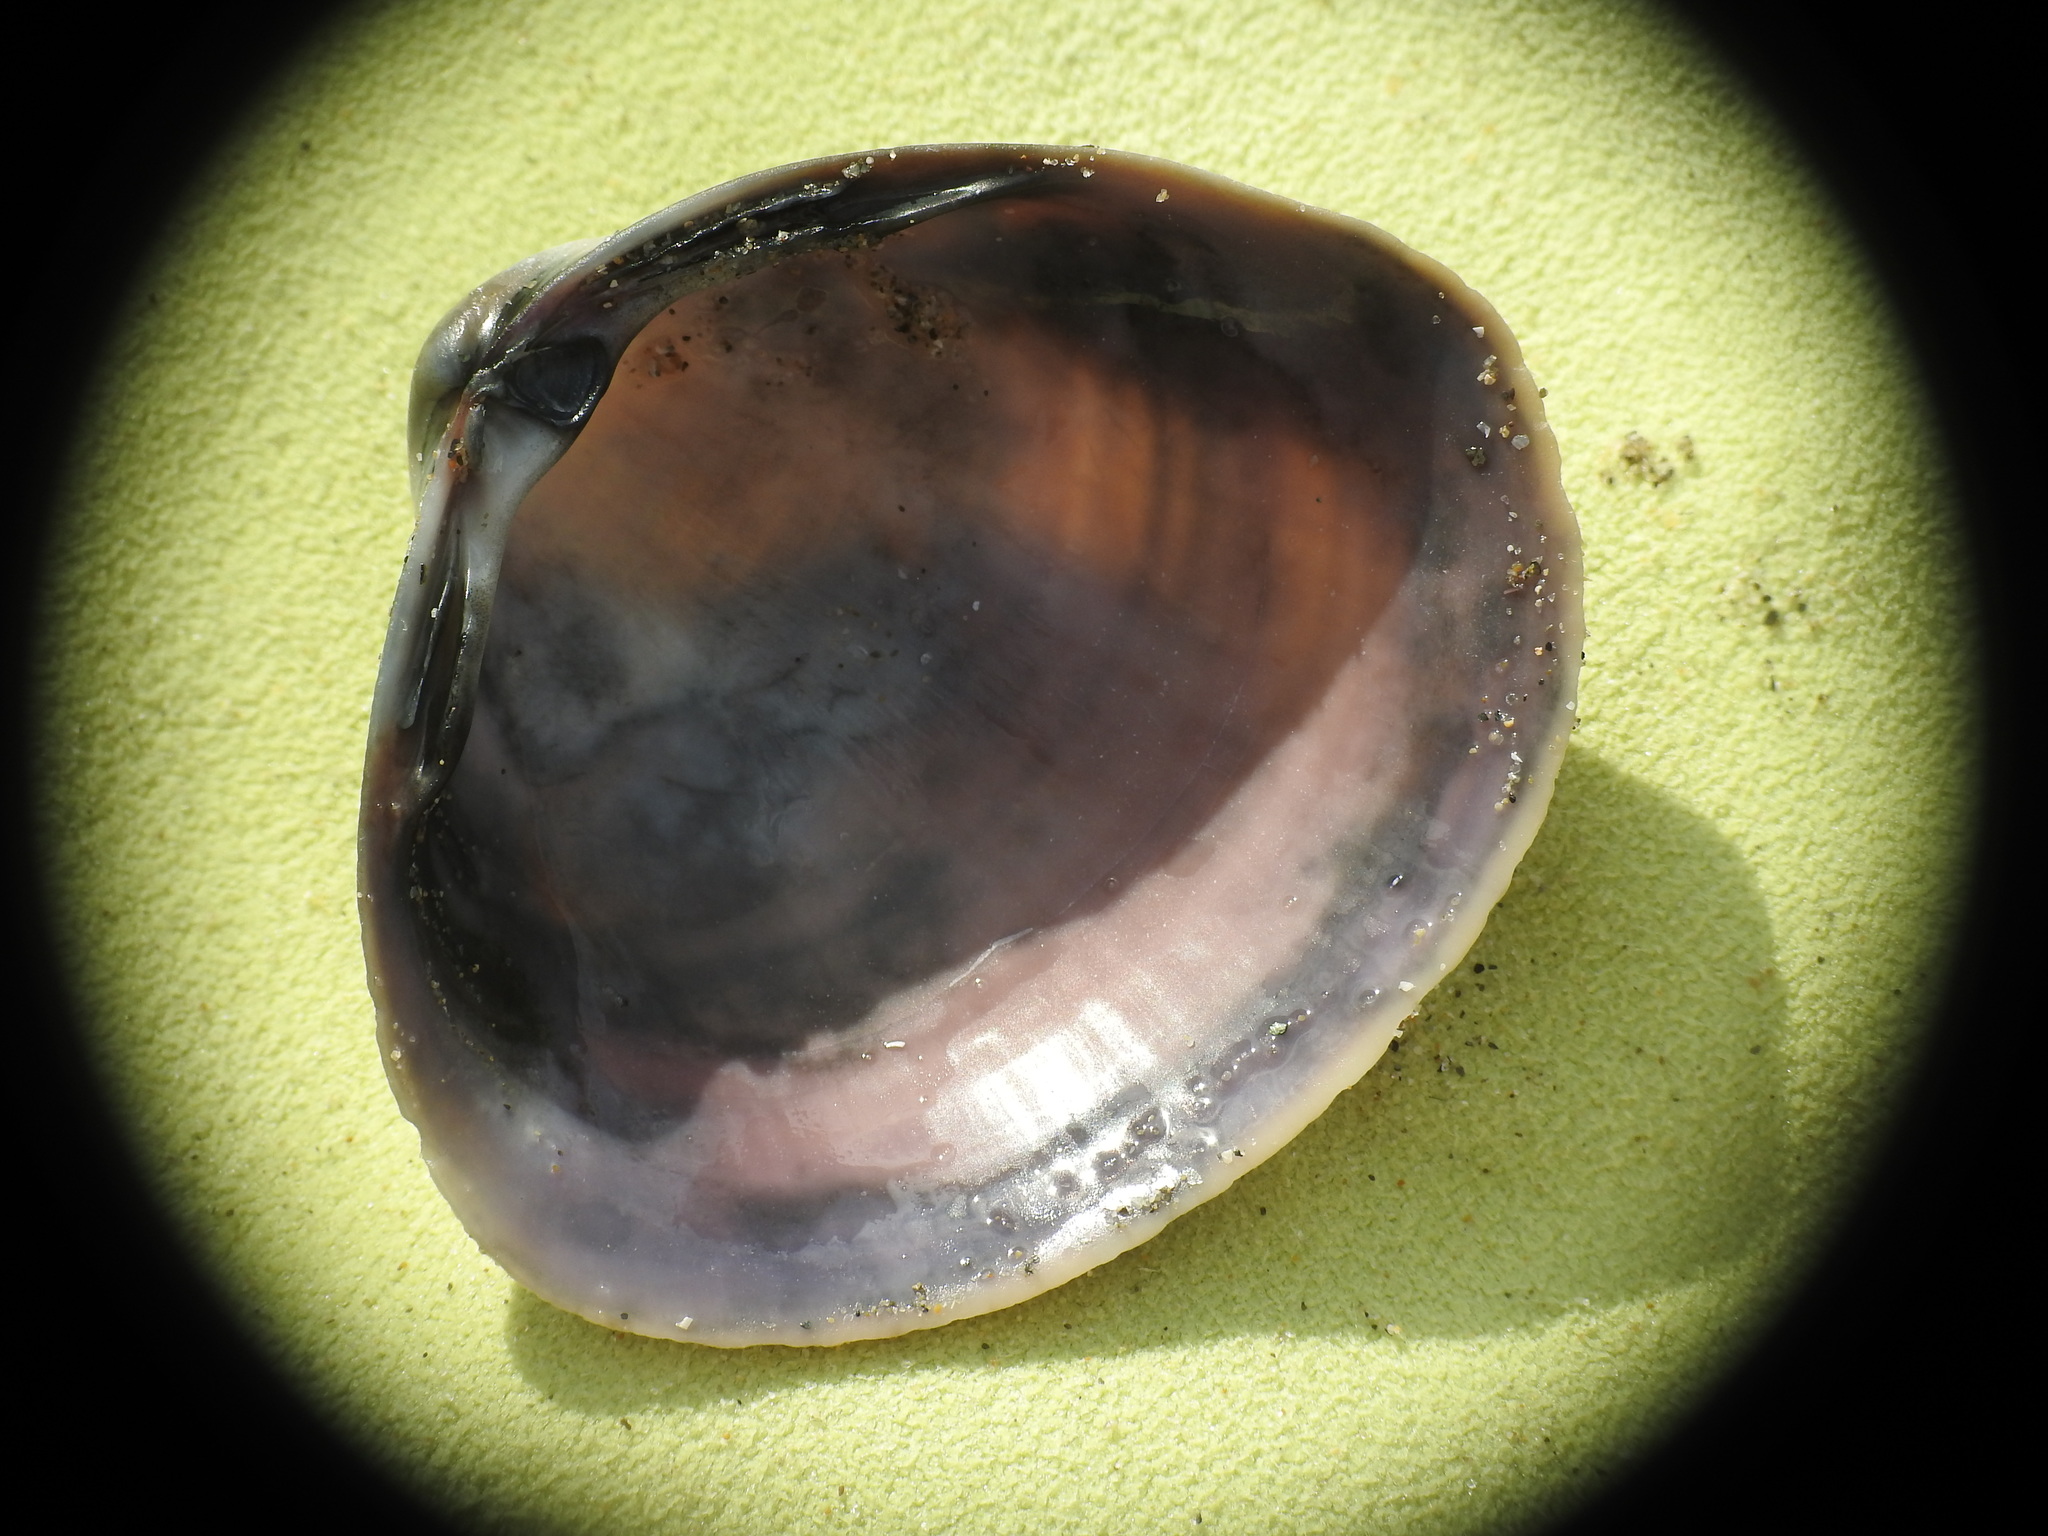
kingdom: Animalia
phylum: Mollusca
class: Bivalvia
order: Venerida
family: Mactridae
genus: Mactra
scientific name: Mactra stultorum
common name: Rayed trough shell
